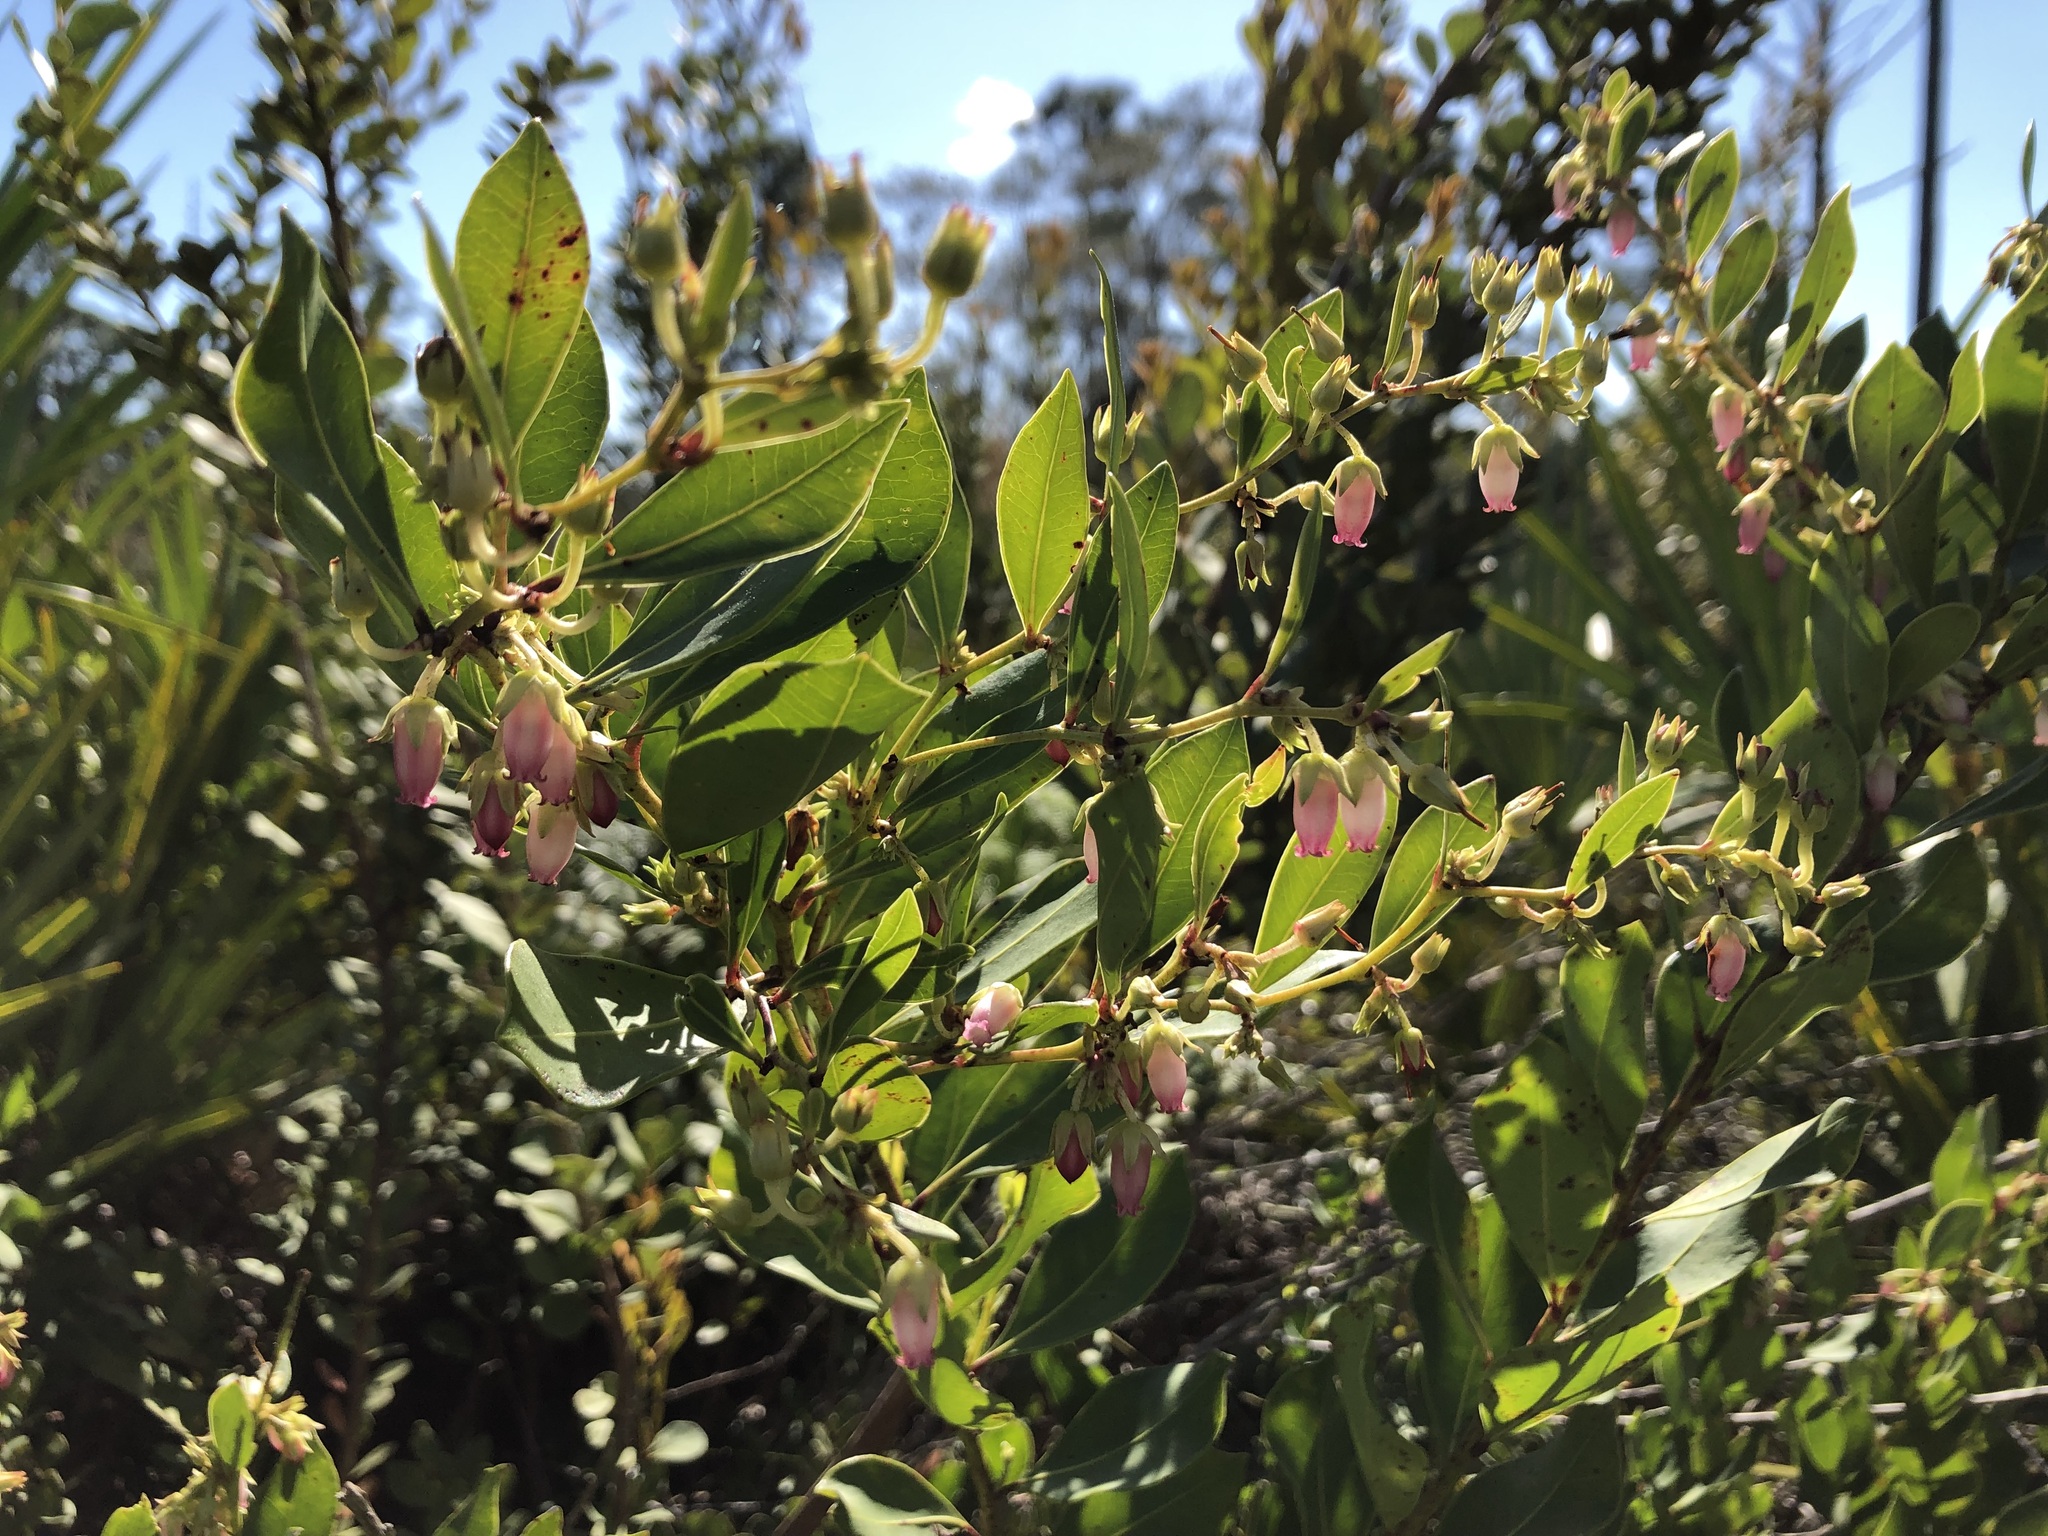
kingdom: Plantae
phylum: Tracheophyta
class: Magnoliopsida
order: Ericales
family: Ericaceae
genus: Lyonia
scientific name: Lyonia lucida
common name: Fetterbush
